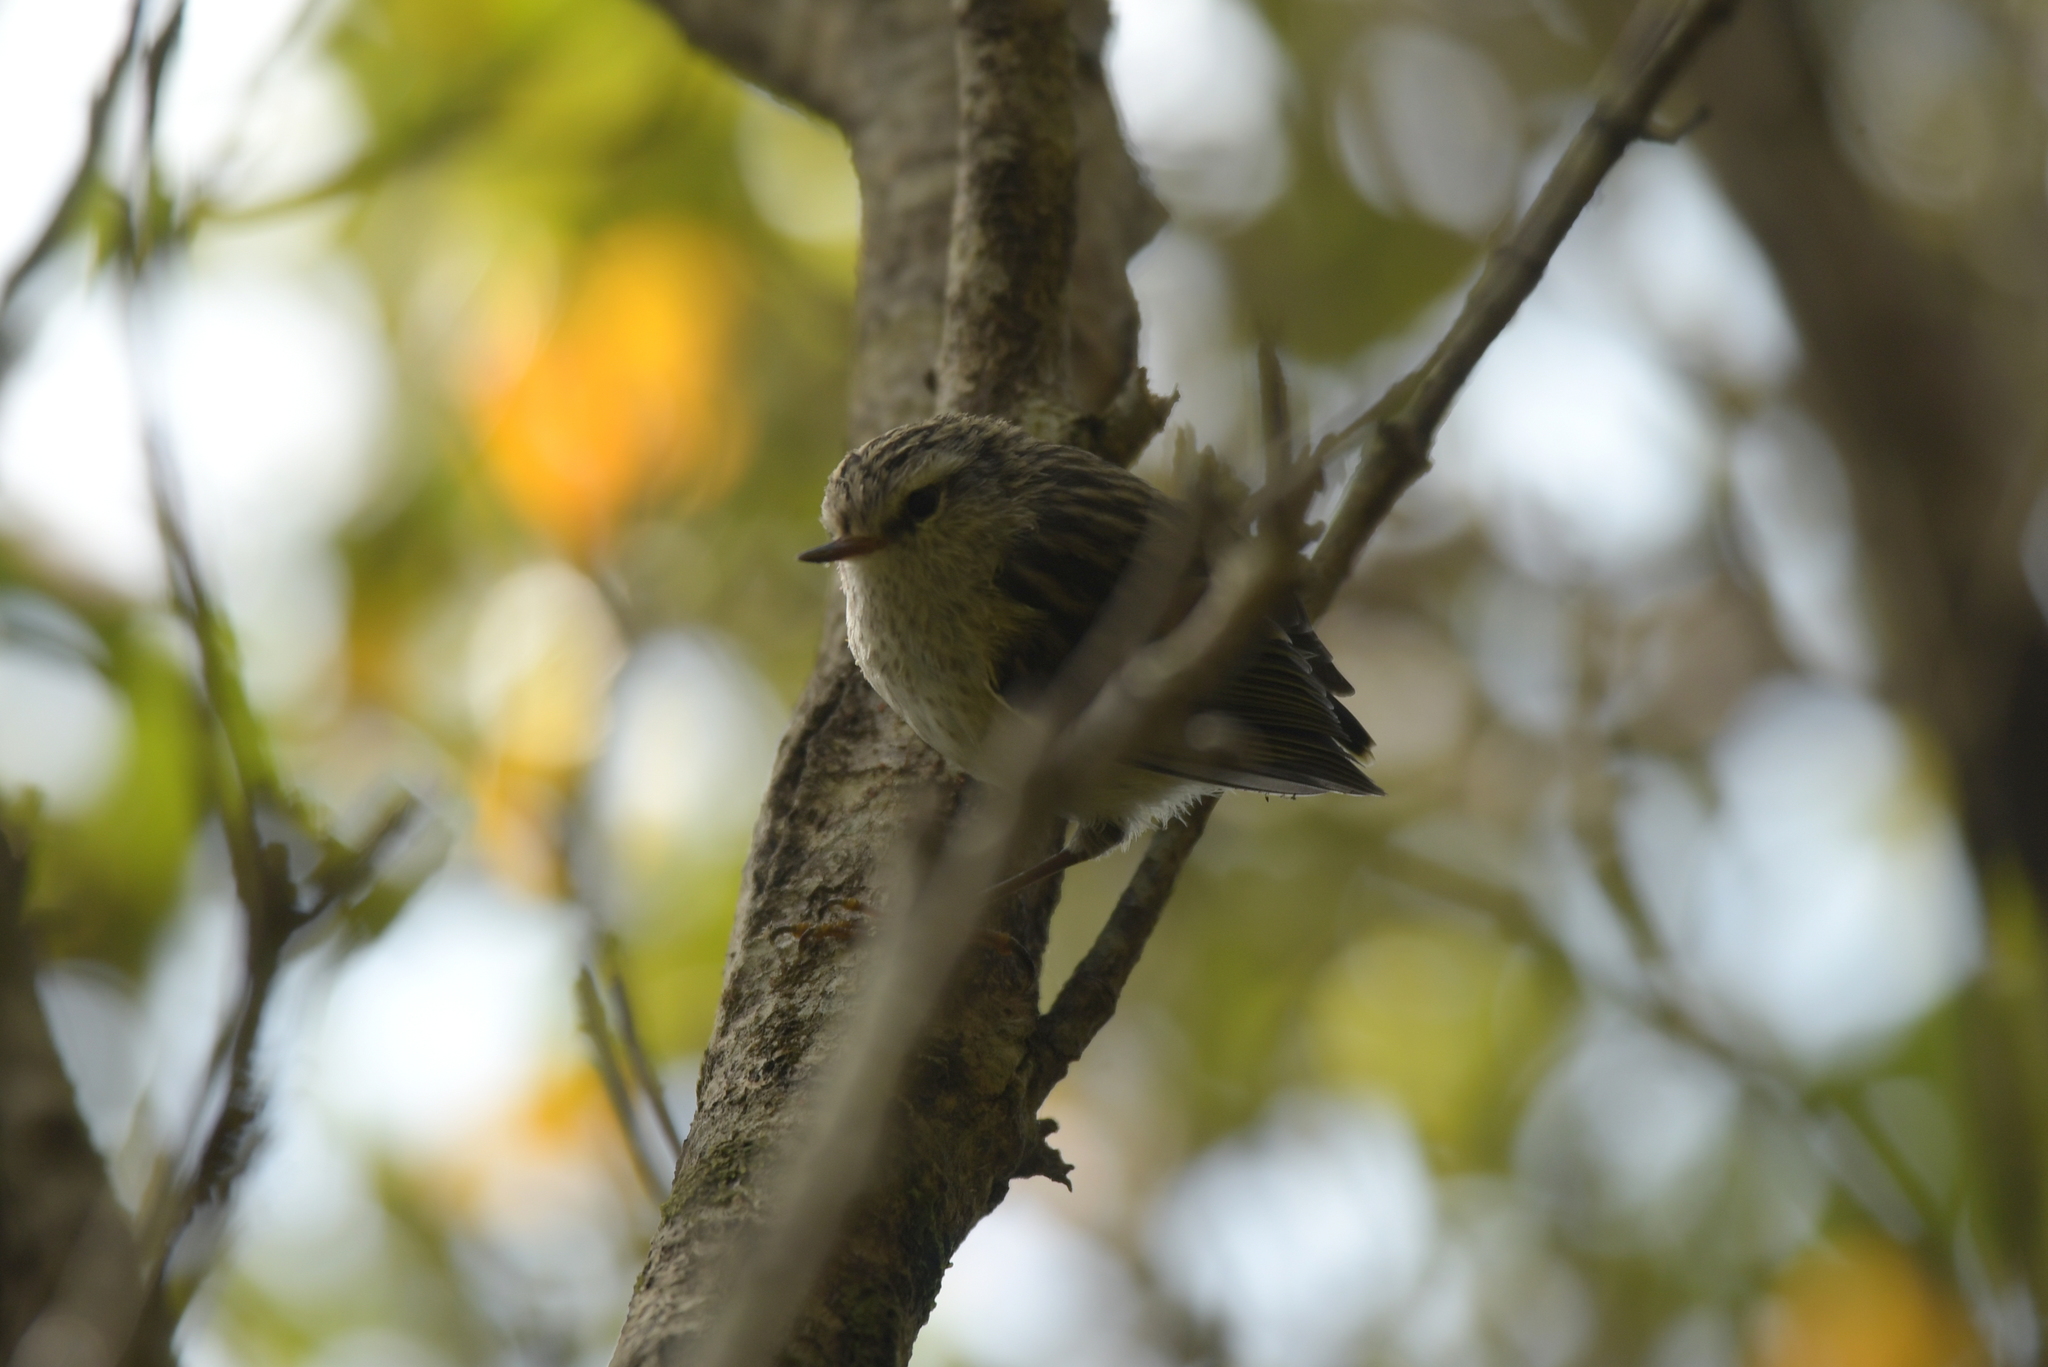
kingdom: Animalia
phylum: Chordata
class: Aves
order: Passeriformes
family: Acanthisittidae
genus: Acanthisitta
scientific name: Acanthisitta chloris
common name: Rifleman
